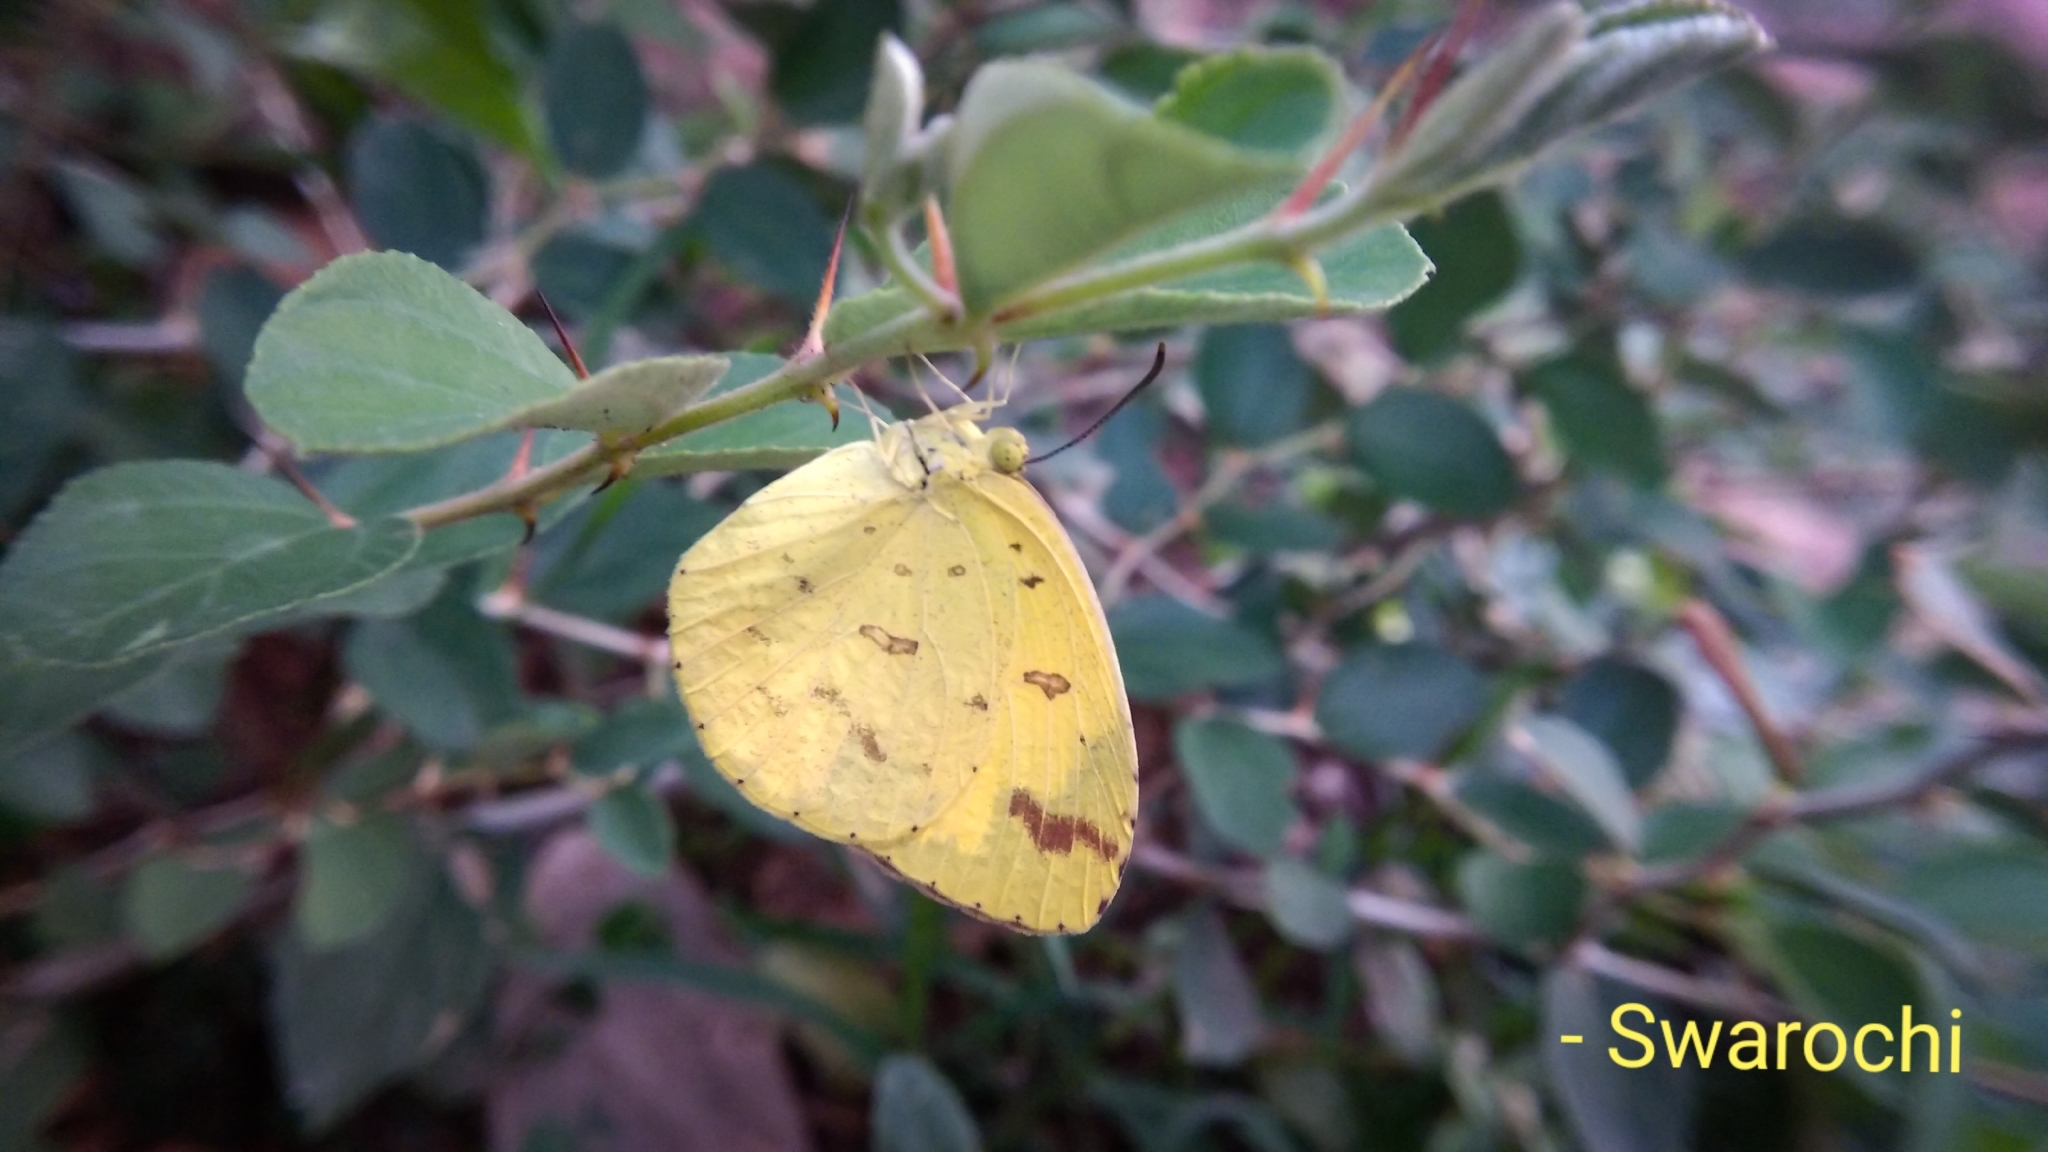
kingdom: Animalia
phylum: Arthropoda
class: Insecta
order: Lepidoptera
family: Pieridae
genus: Eurema
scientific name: Eurema hecabe
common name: Pale grass yellow
